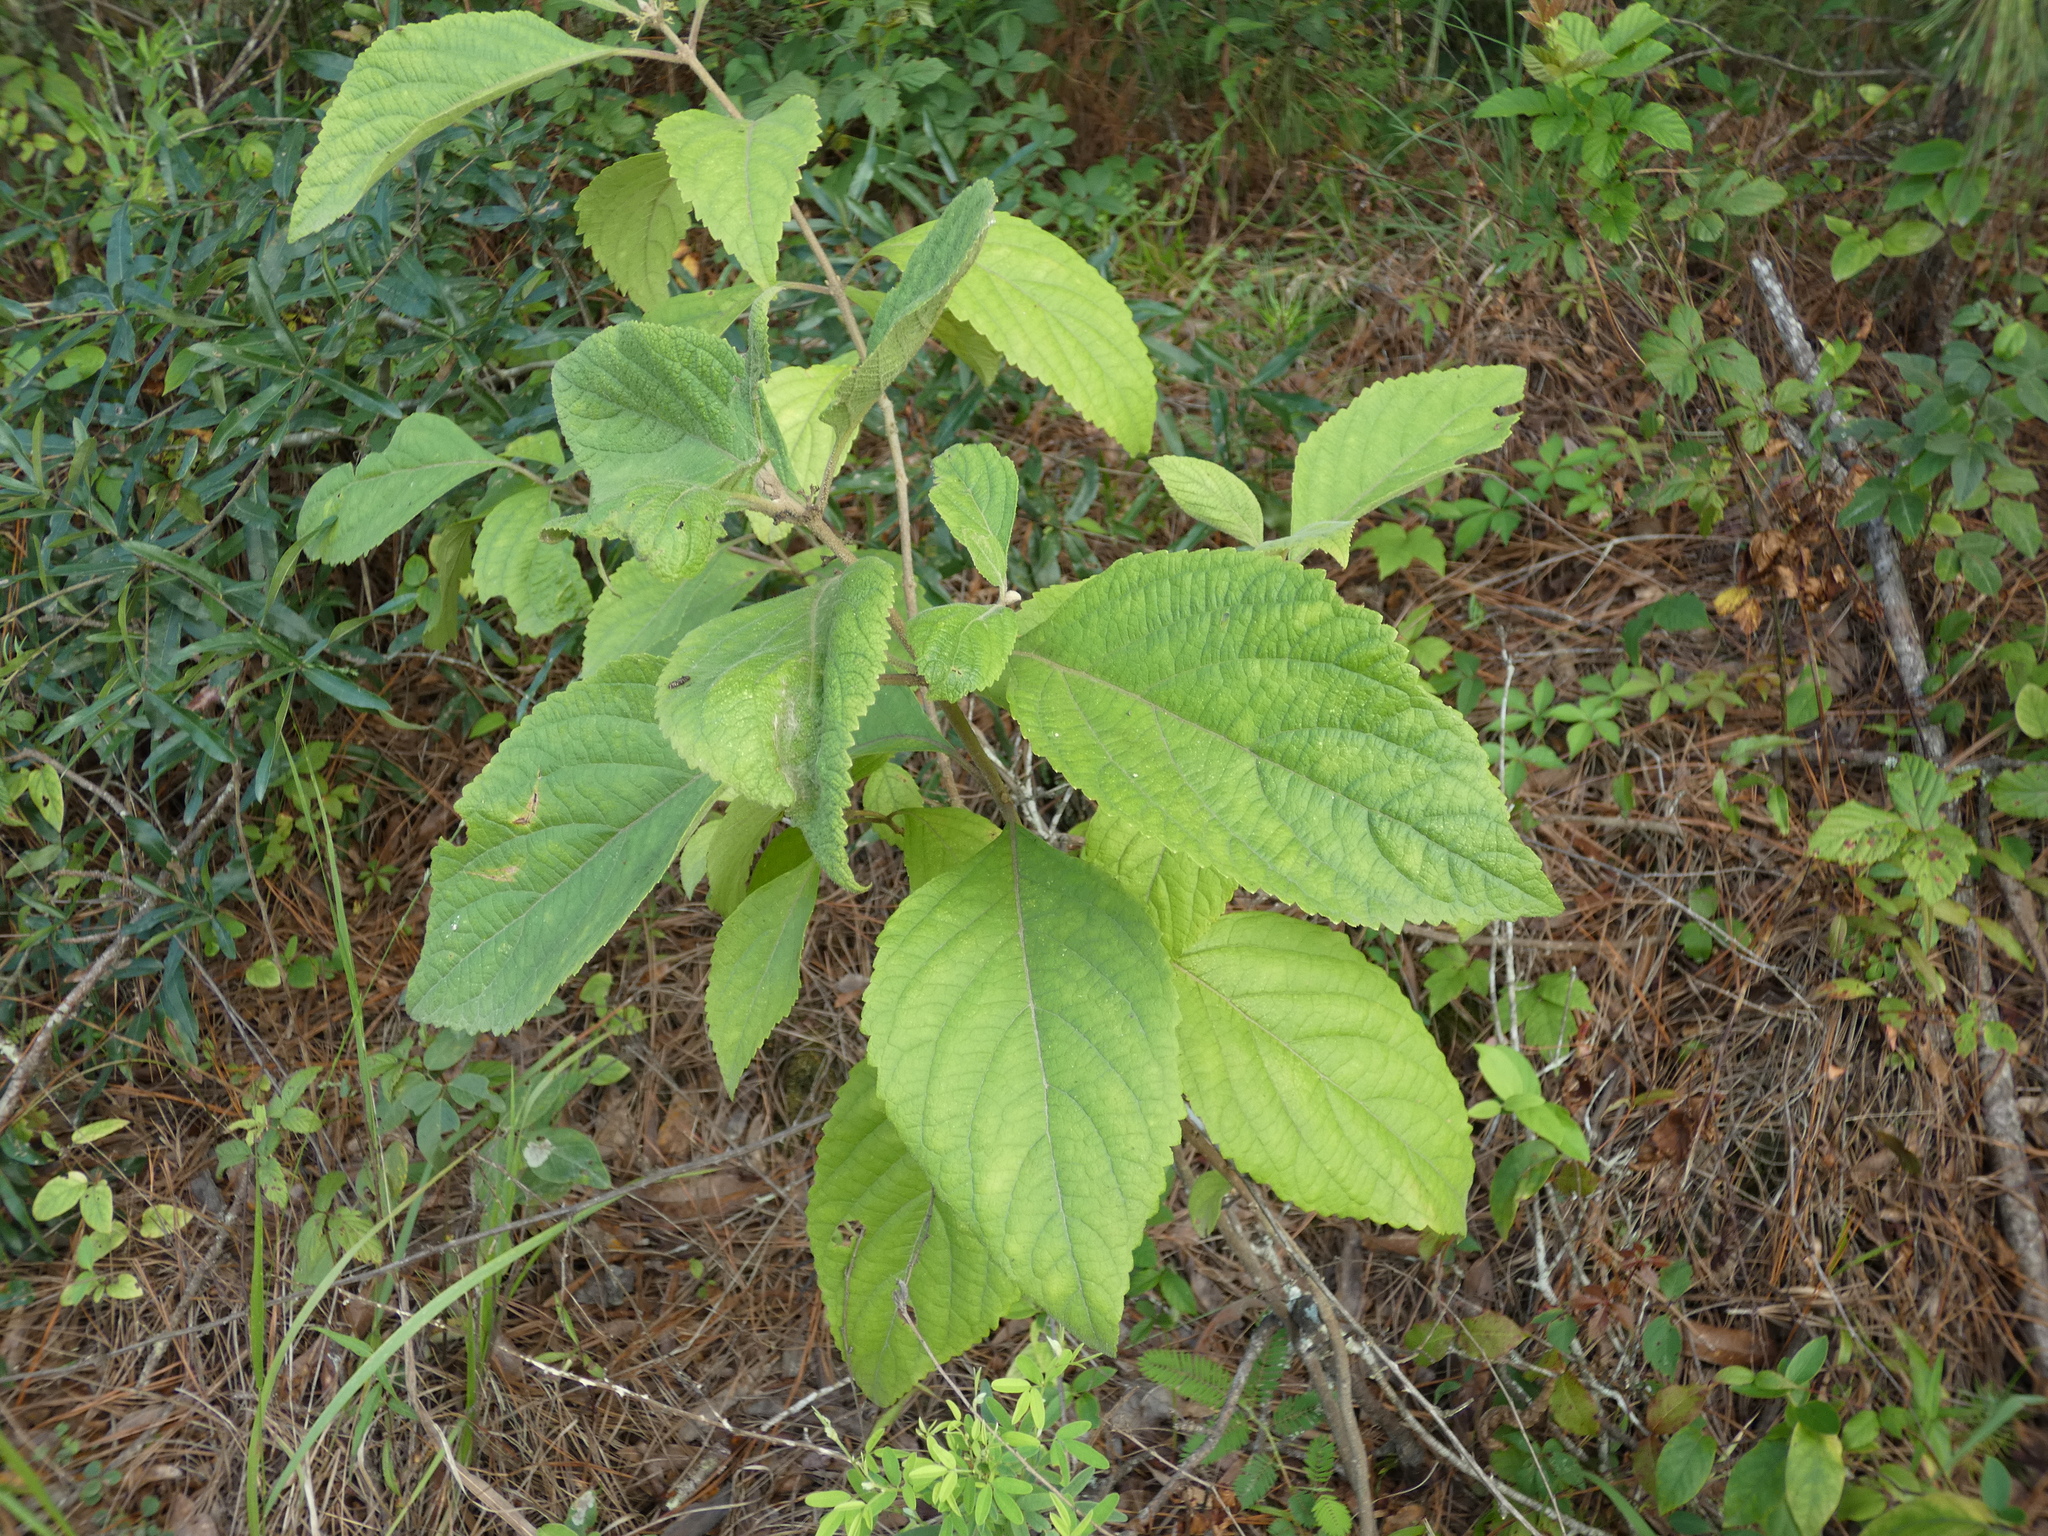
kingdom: Plantae
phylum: Tracheophyta
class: Magnoliopsida
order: Lamiales
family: Lamiaceae
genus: Callicarpa
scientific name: Callicarpa americana
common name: American beautyberry
